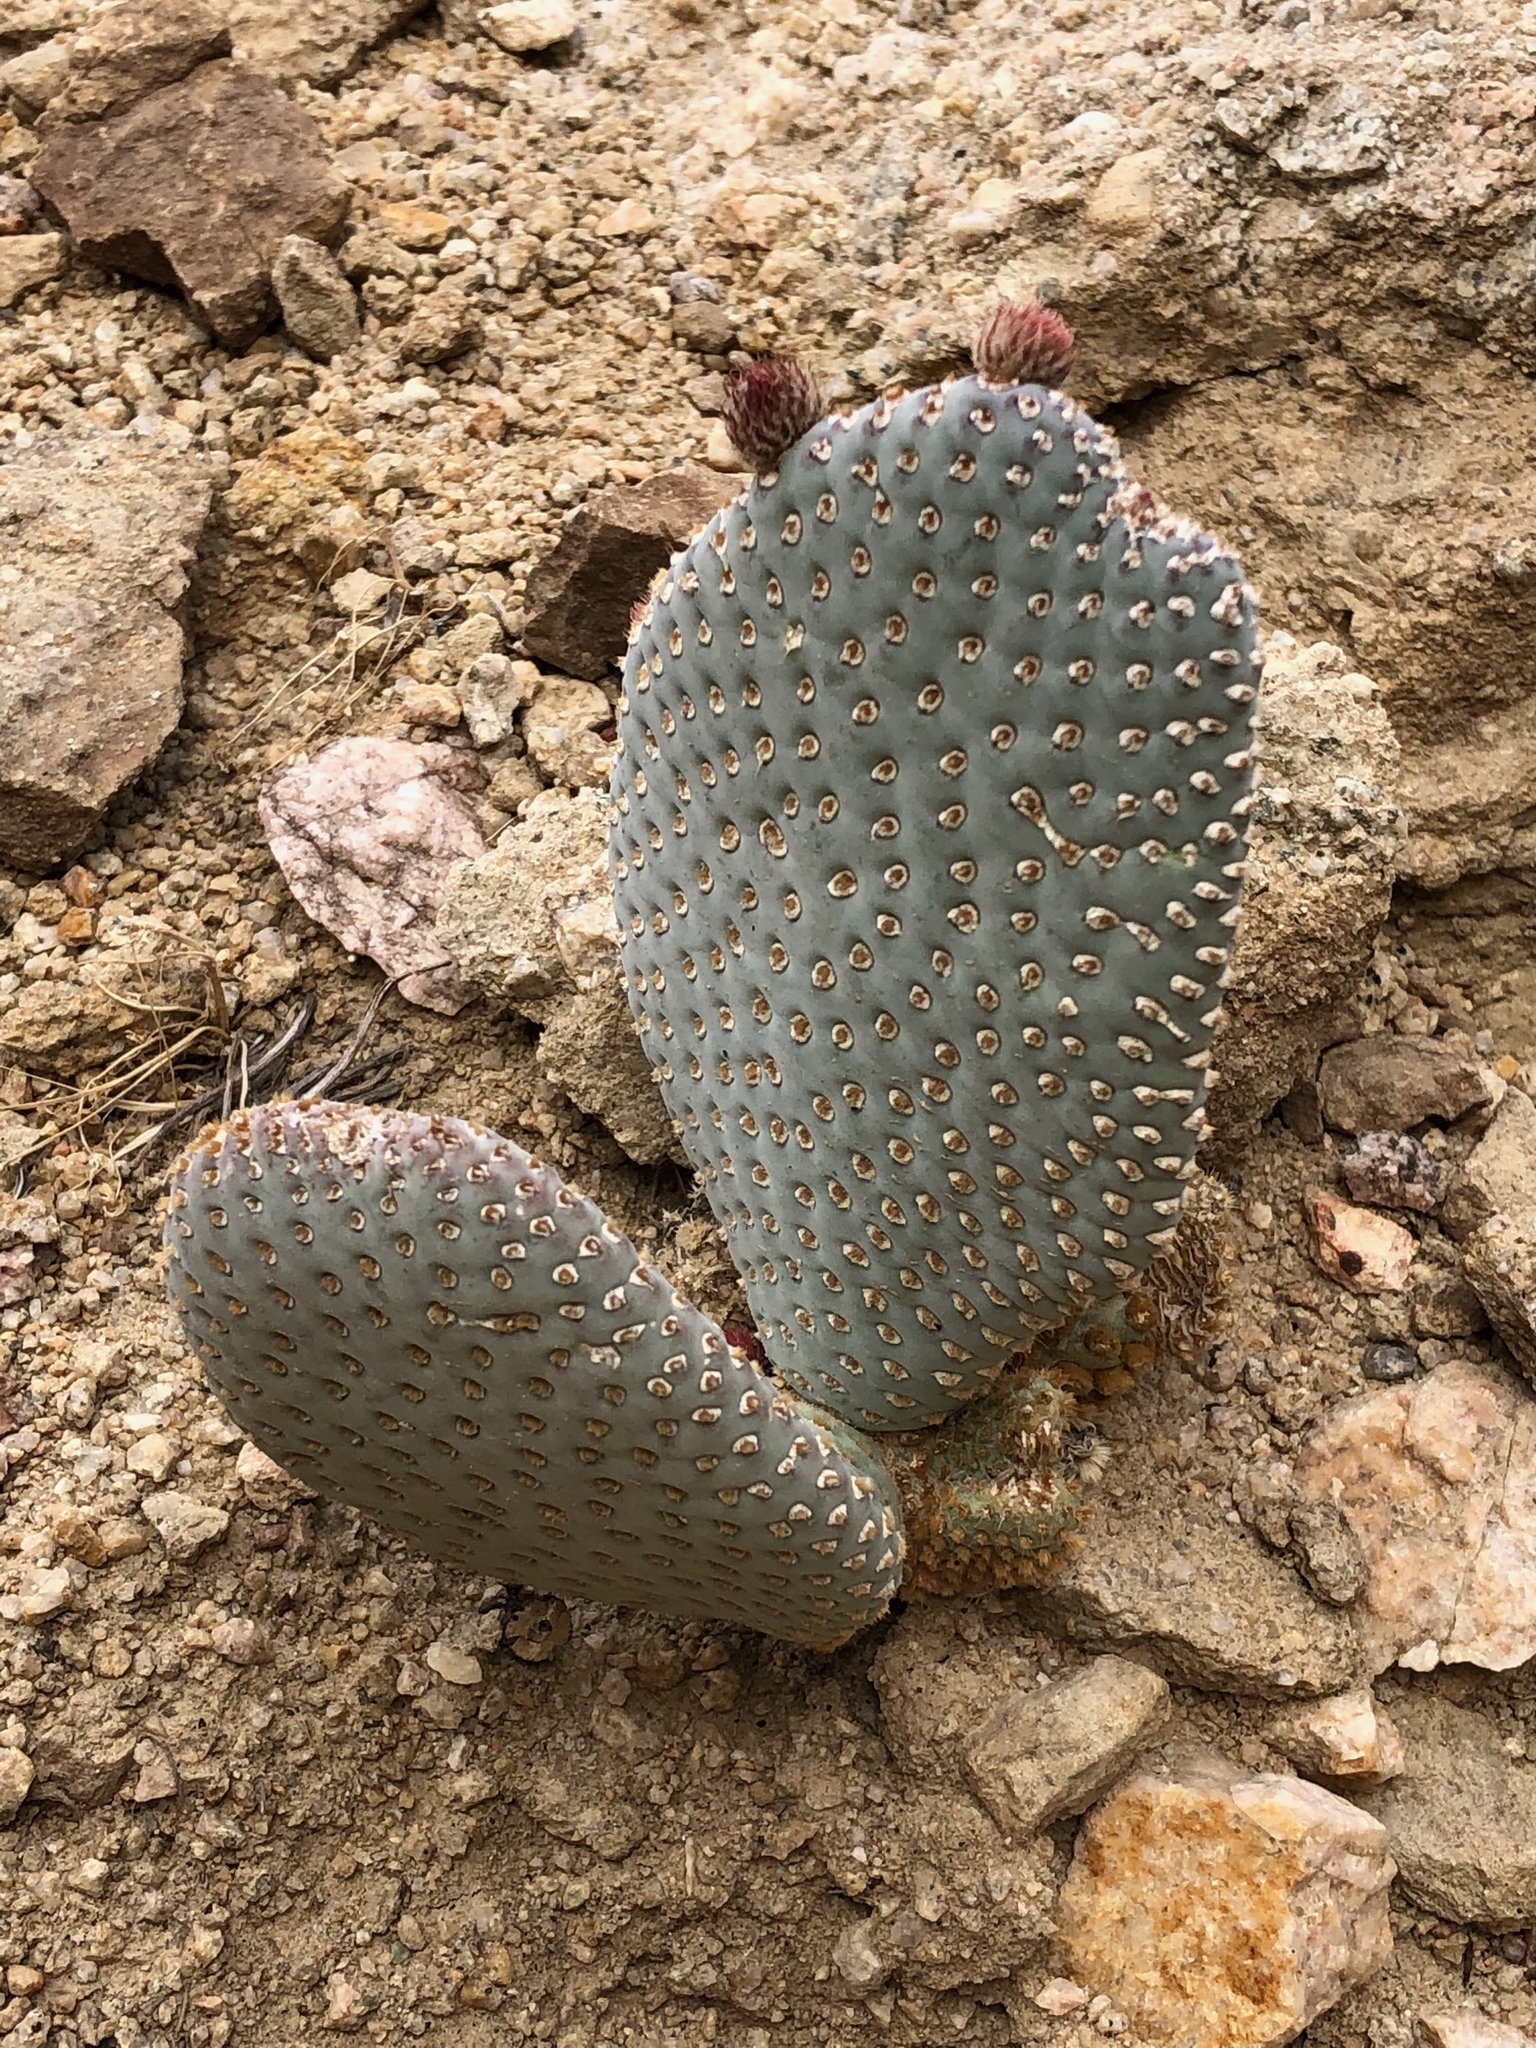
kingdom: Plantae
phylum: Tracheophyta
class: Magnoliopsida
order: Caryophyllales
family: Cactaceae
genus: Opuntia
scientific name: Opuntia basilaris
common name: Beavertail prickly-pear
